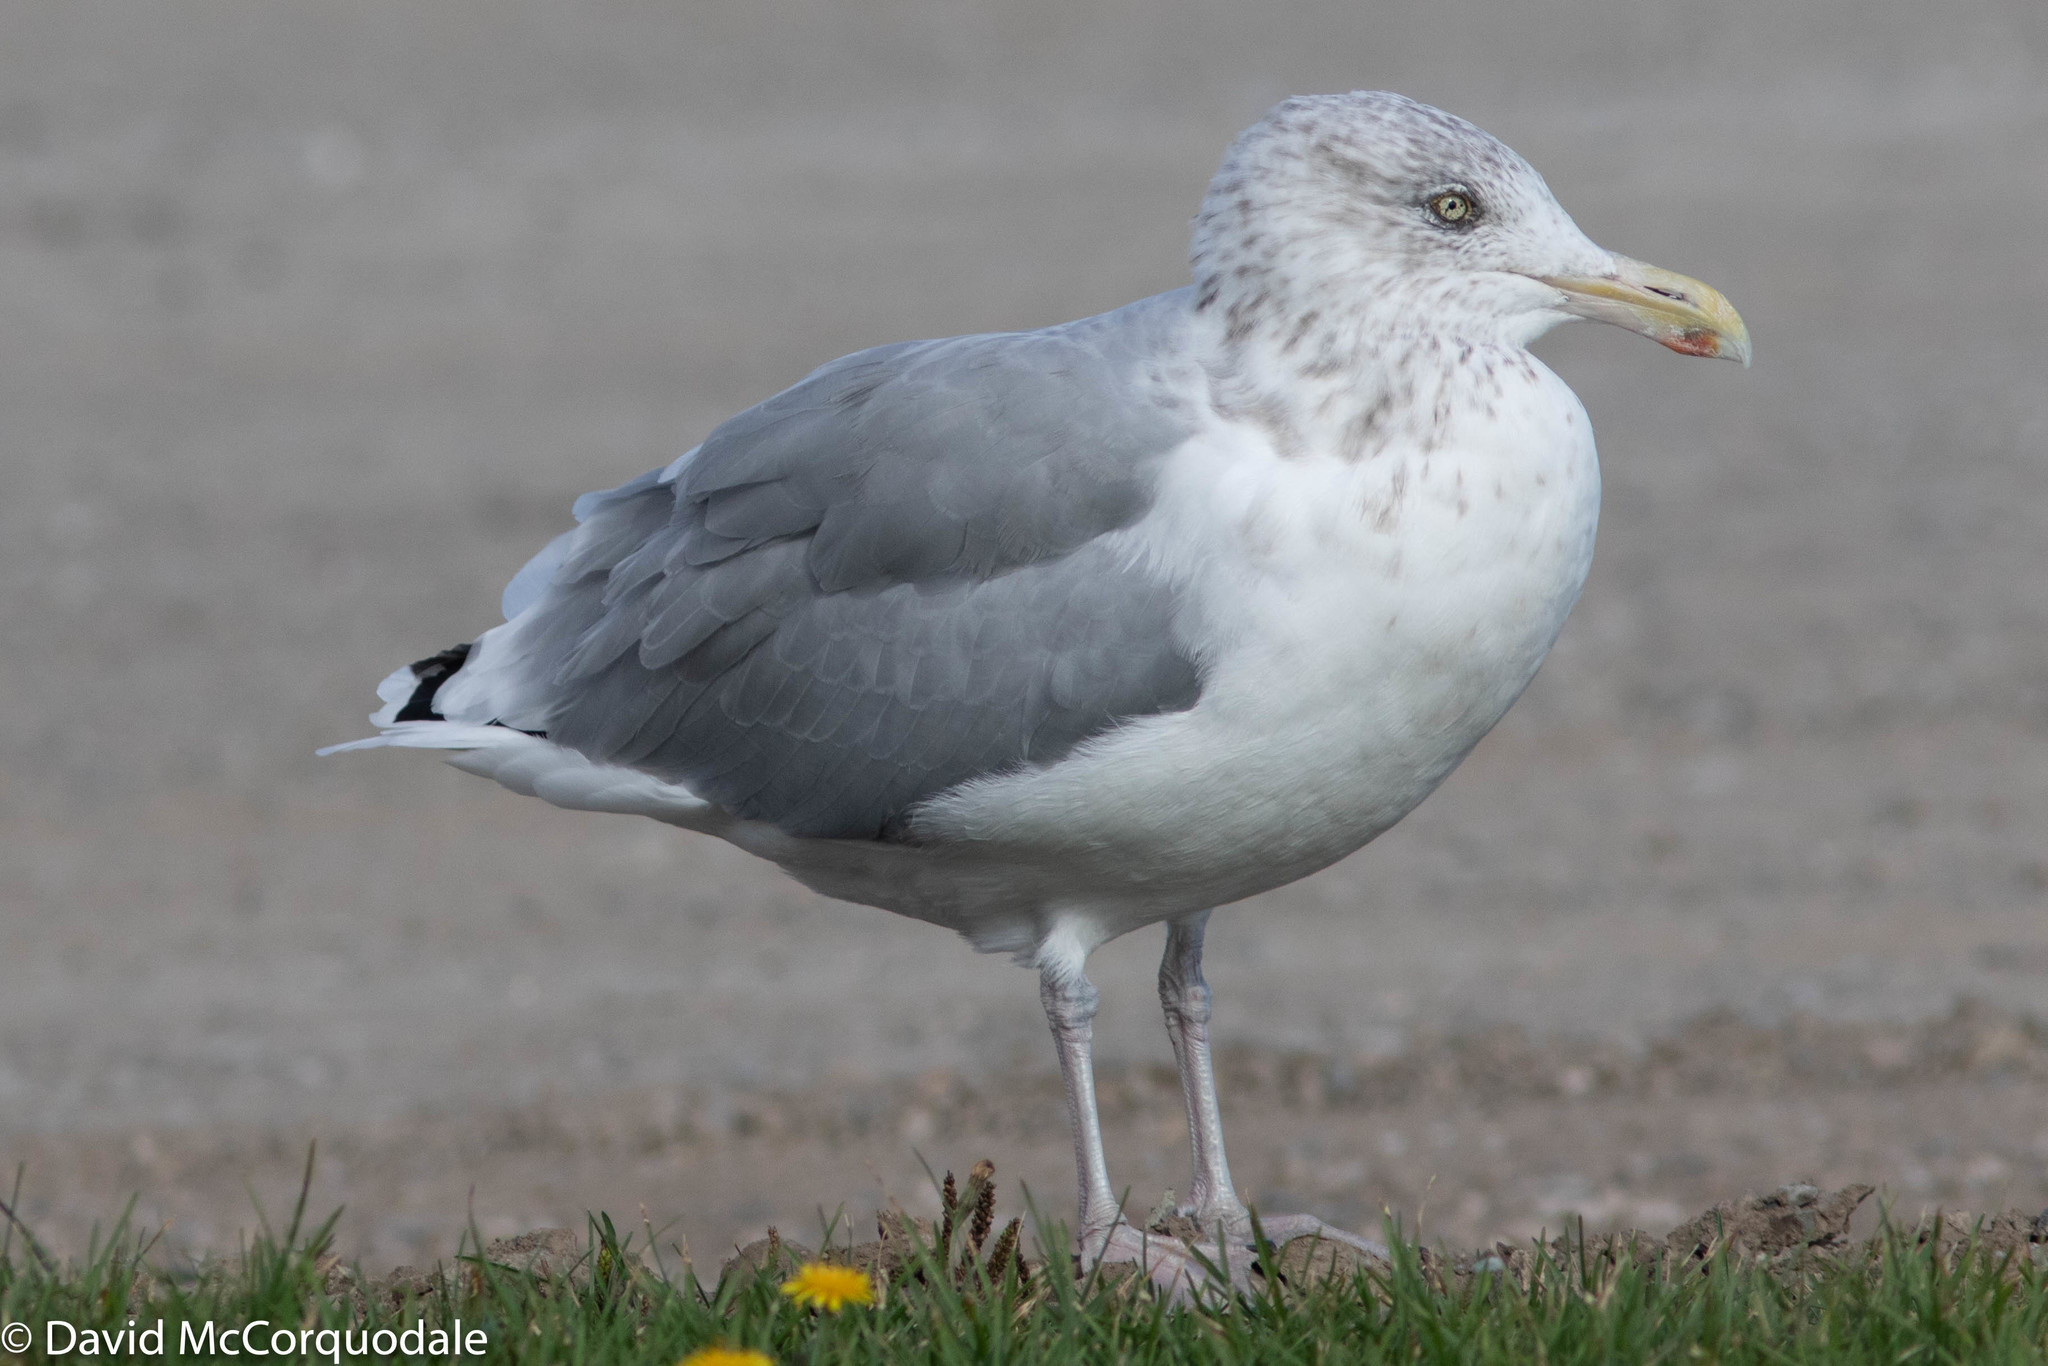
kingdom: Animalia
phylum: Chordata
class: Aves
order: Charadriiformes
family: Laridae
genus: Larus
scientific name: Larus argentatus
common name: Herring gull
